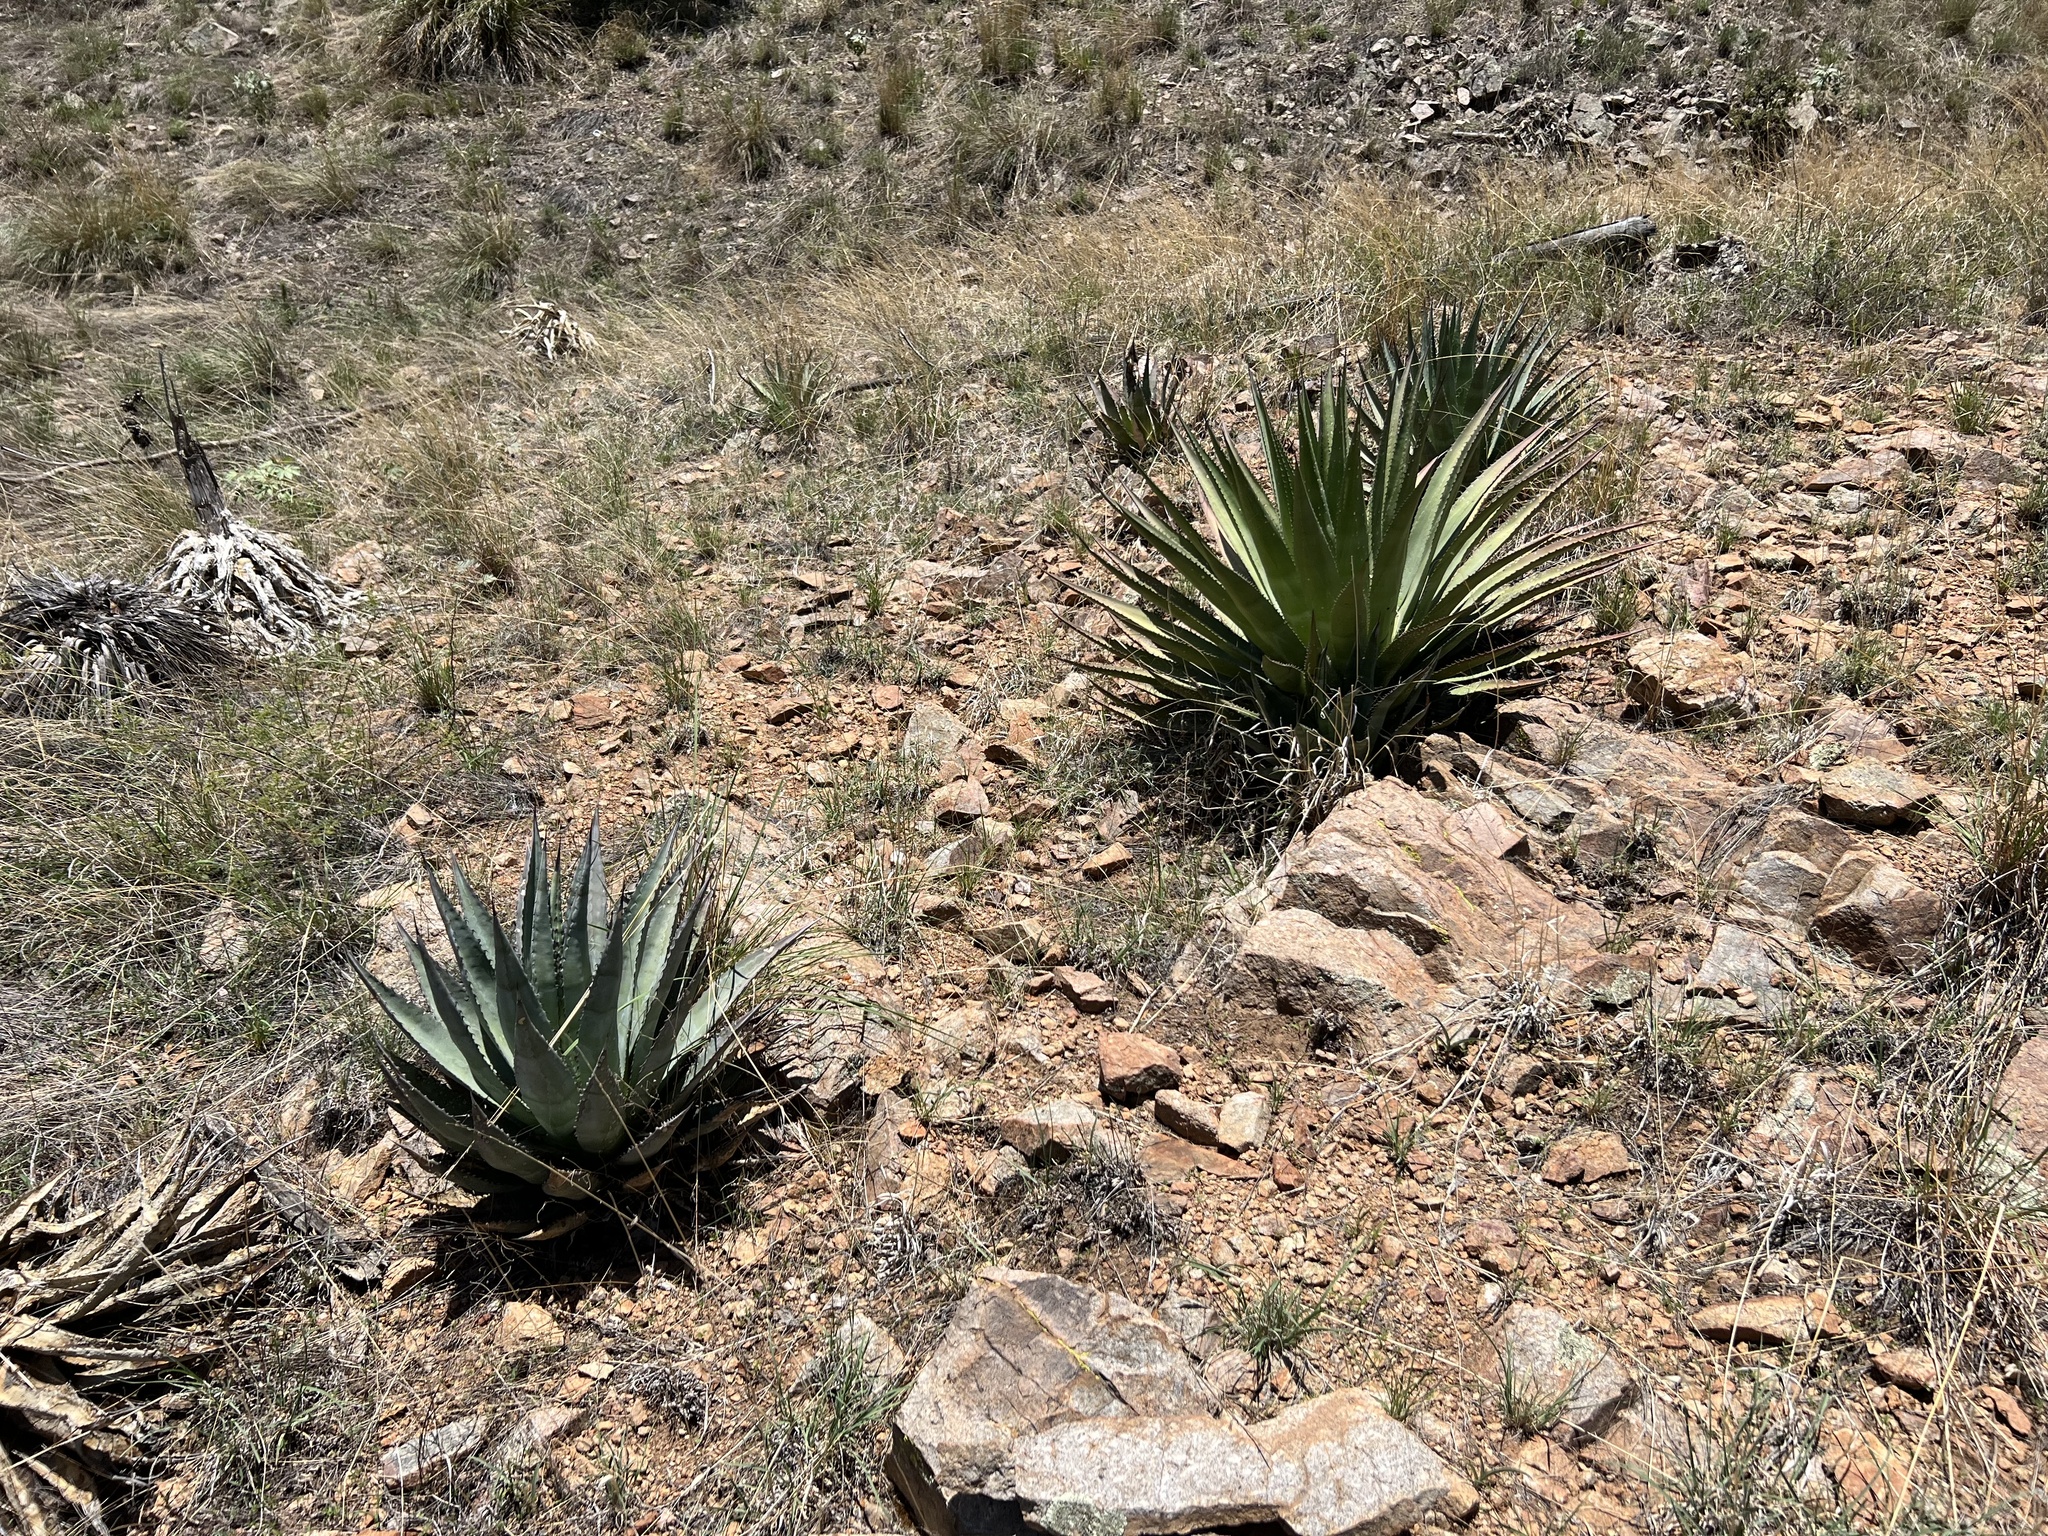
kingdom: Plantae
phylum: Tracheophyta
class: Liliopsida
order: Asparagales
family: Asparagaceae
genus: Agave
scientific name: Agave palmeri
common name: Palmer agave
